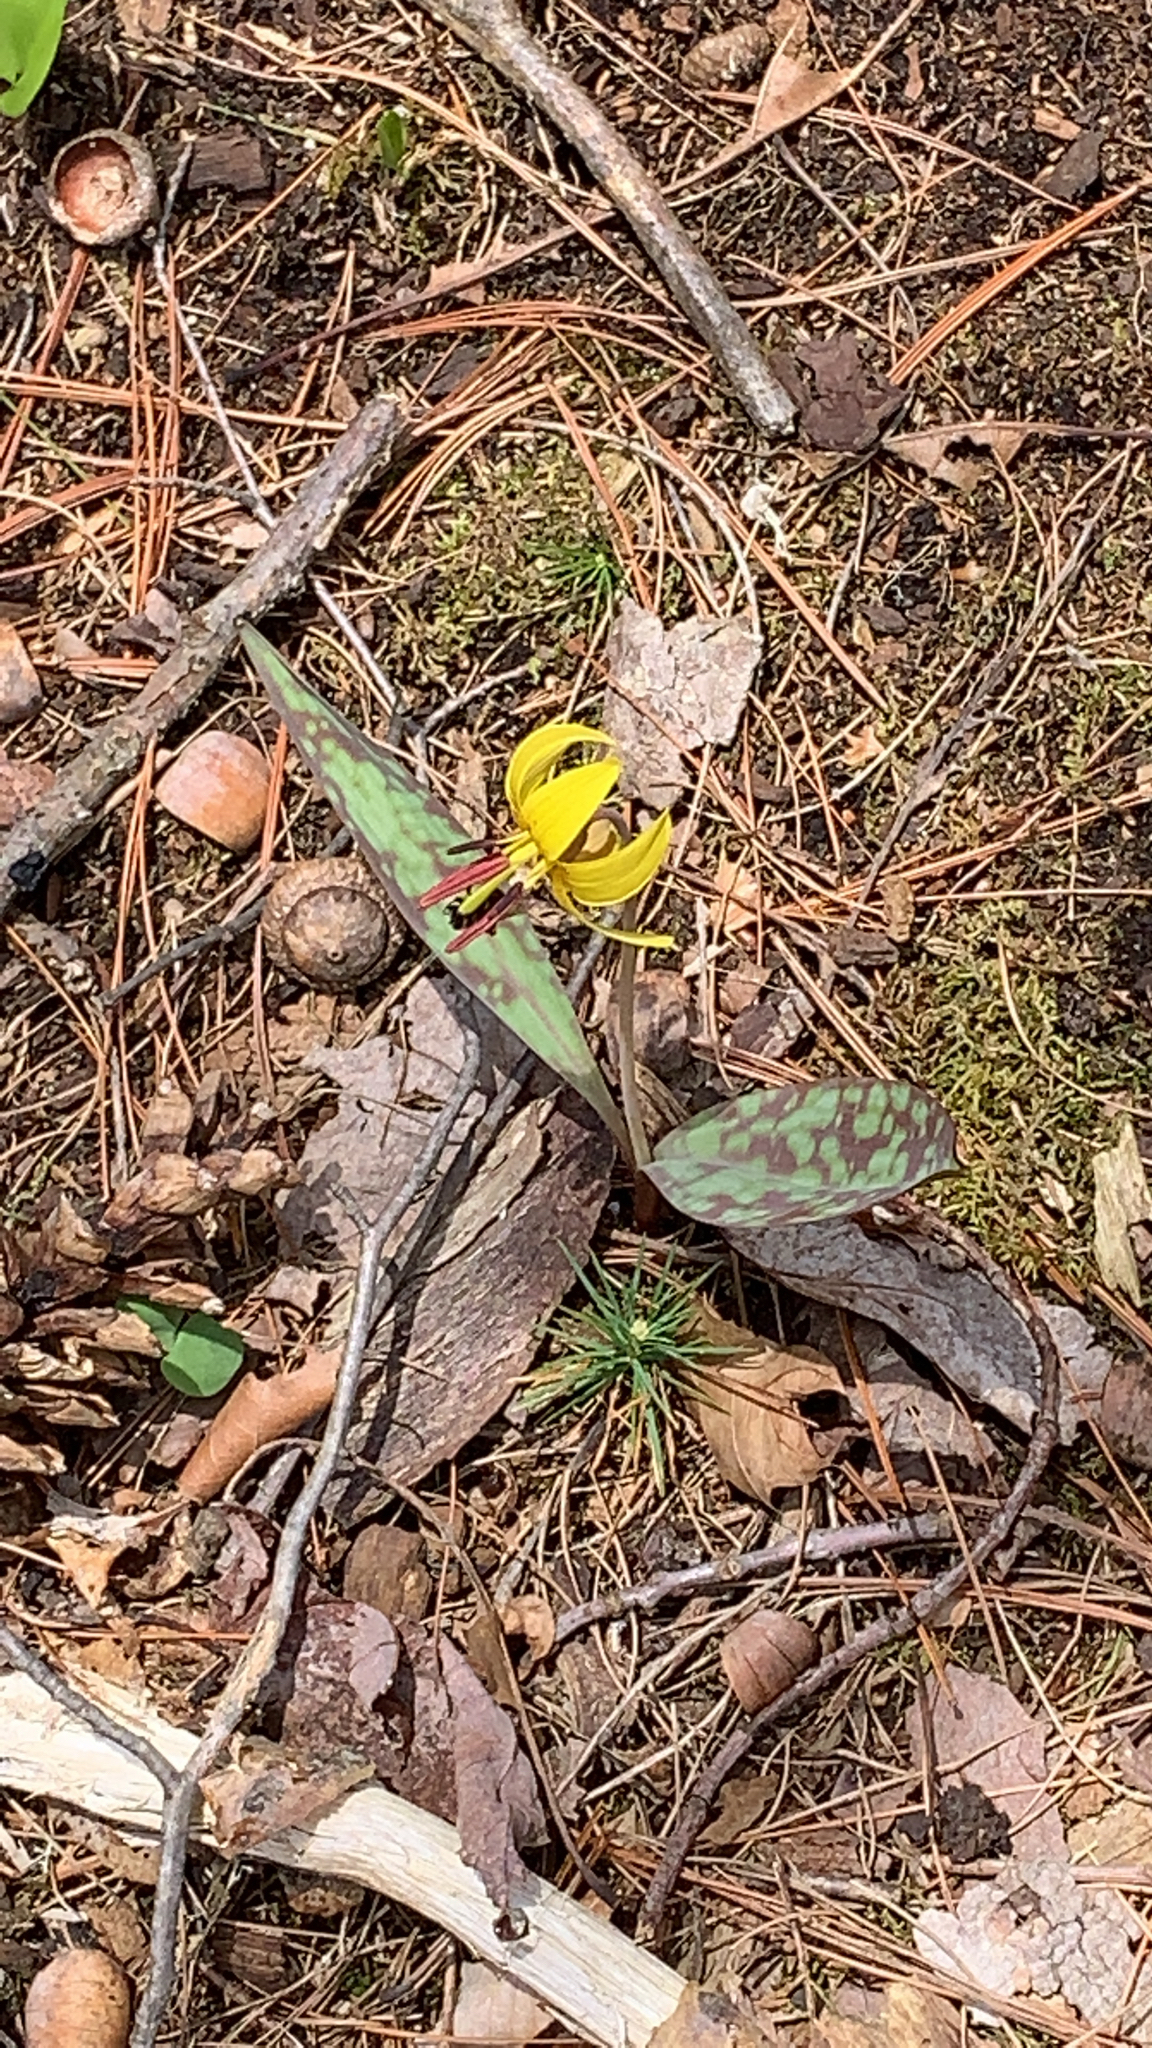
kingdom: Plantae
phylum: Tracheophyta
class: Liliopsida
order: Liliales
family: Liliaceae
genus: Erythronium
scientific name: Erythronium americanum
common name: Yellow adder's-tongue
